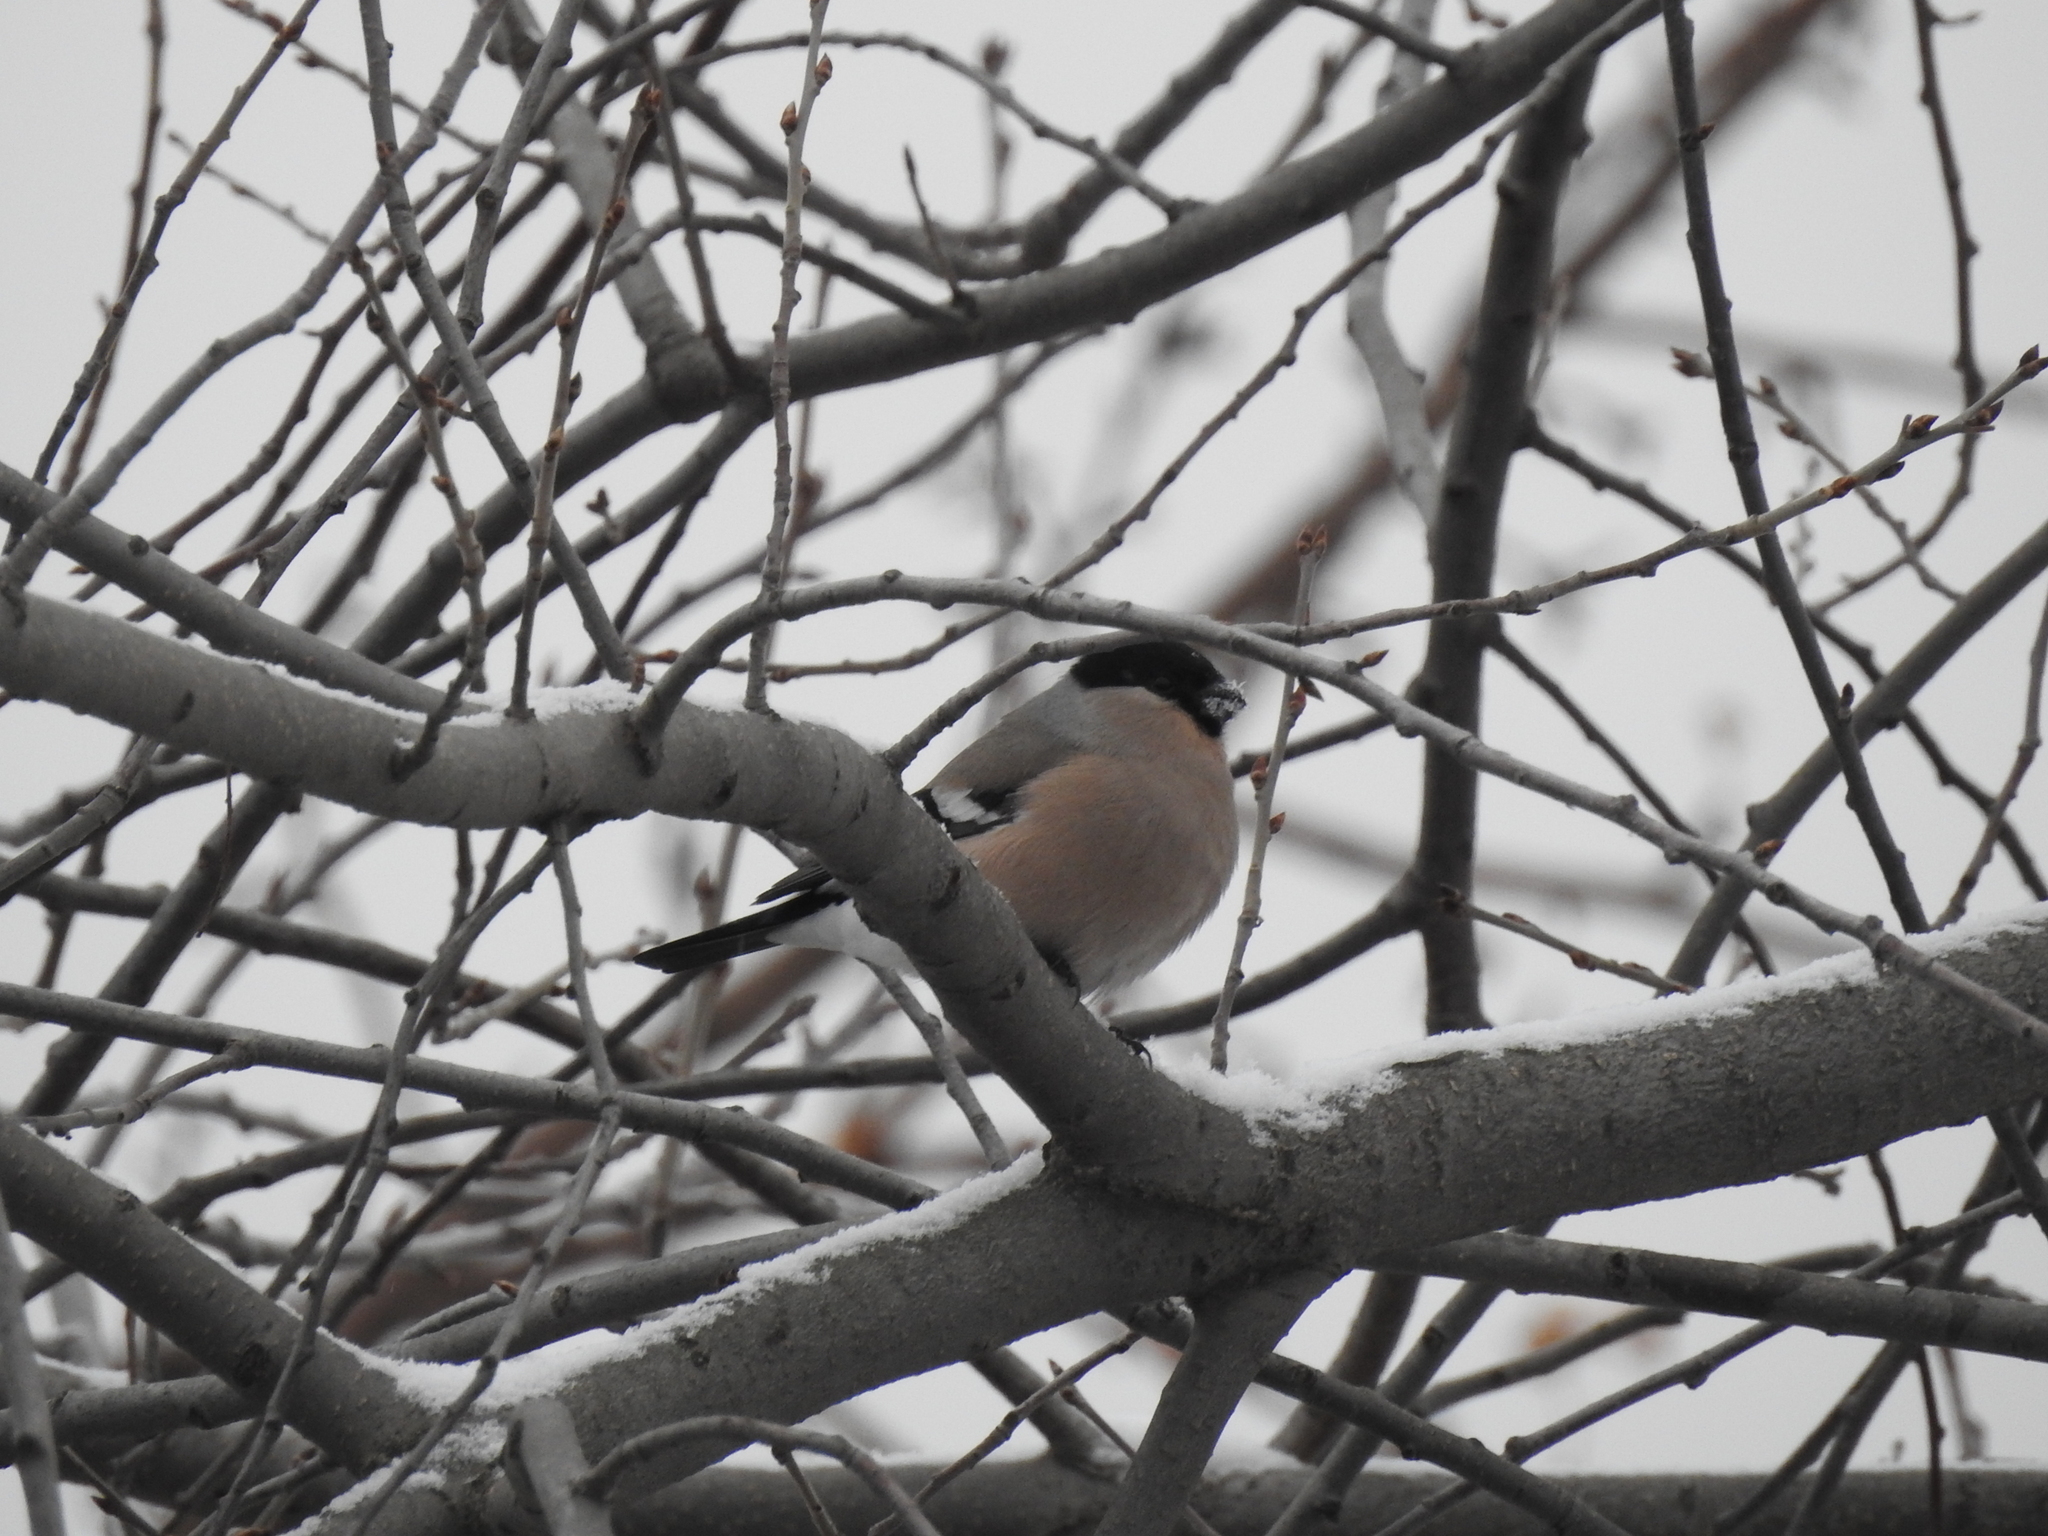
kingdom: Animalia
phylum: Chordata
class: Aves
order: Passeriformes
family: Fringillidae
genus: Pyrrhula
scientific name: Pyrrhula pyrrhula
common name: Eurasian bullfinch
